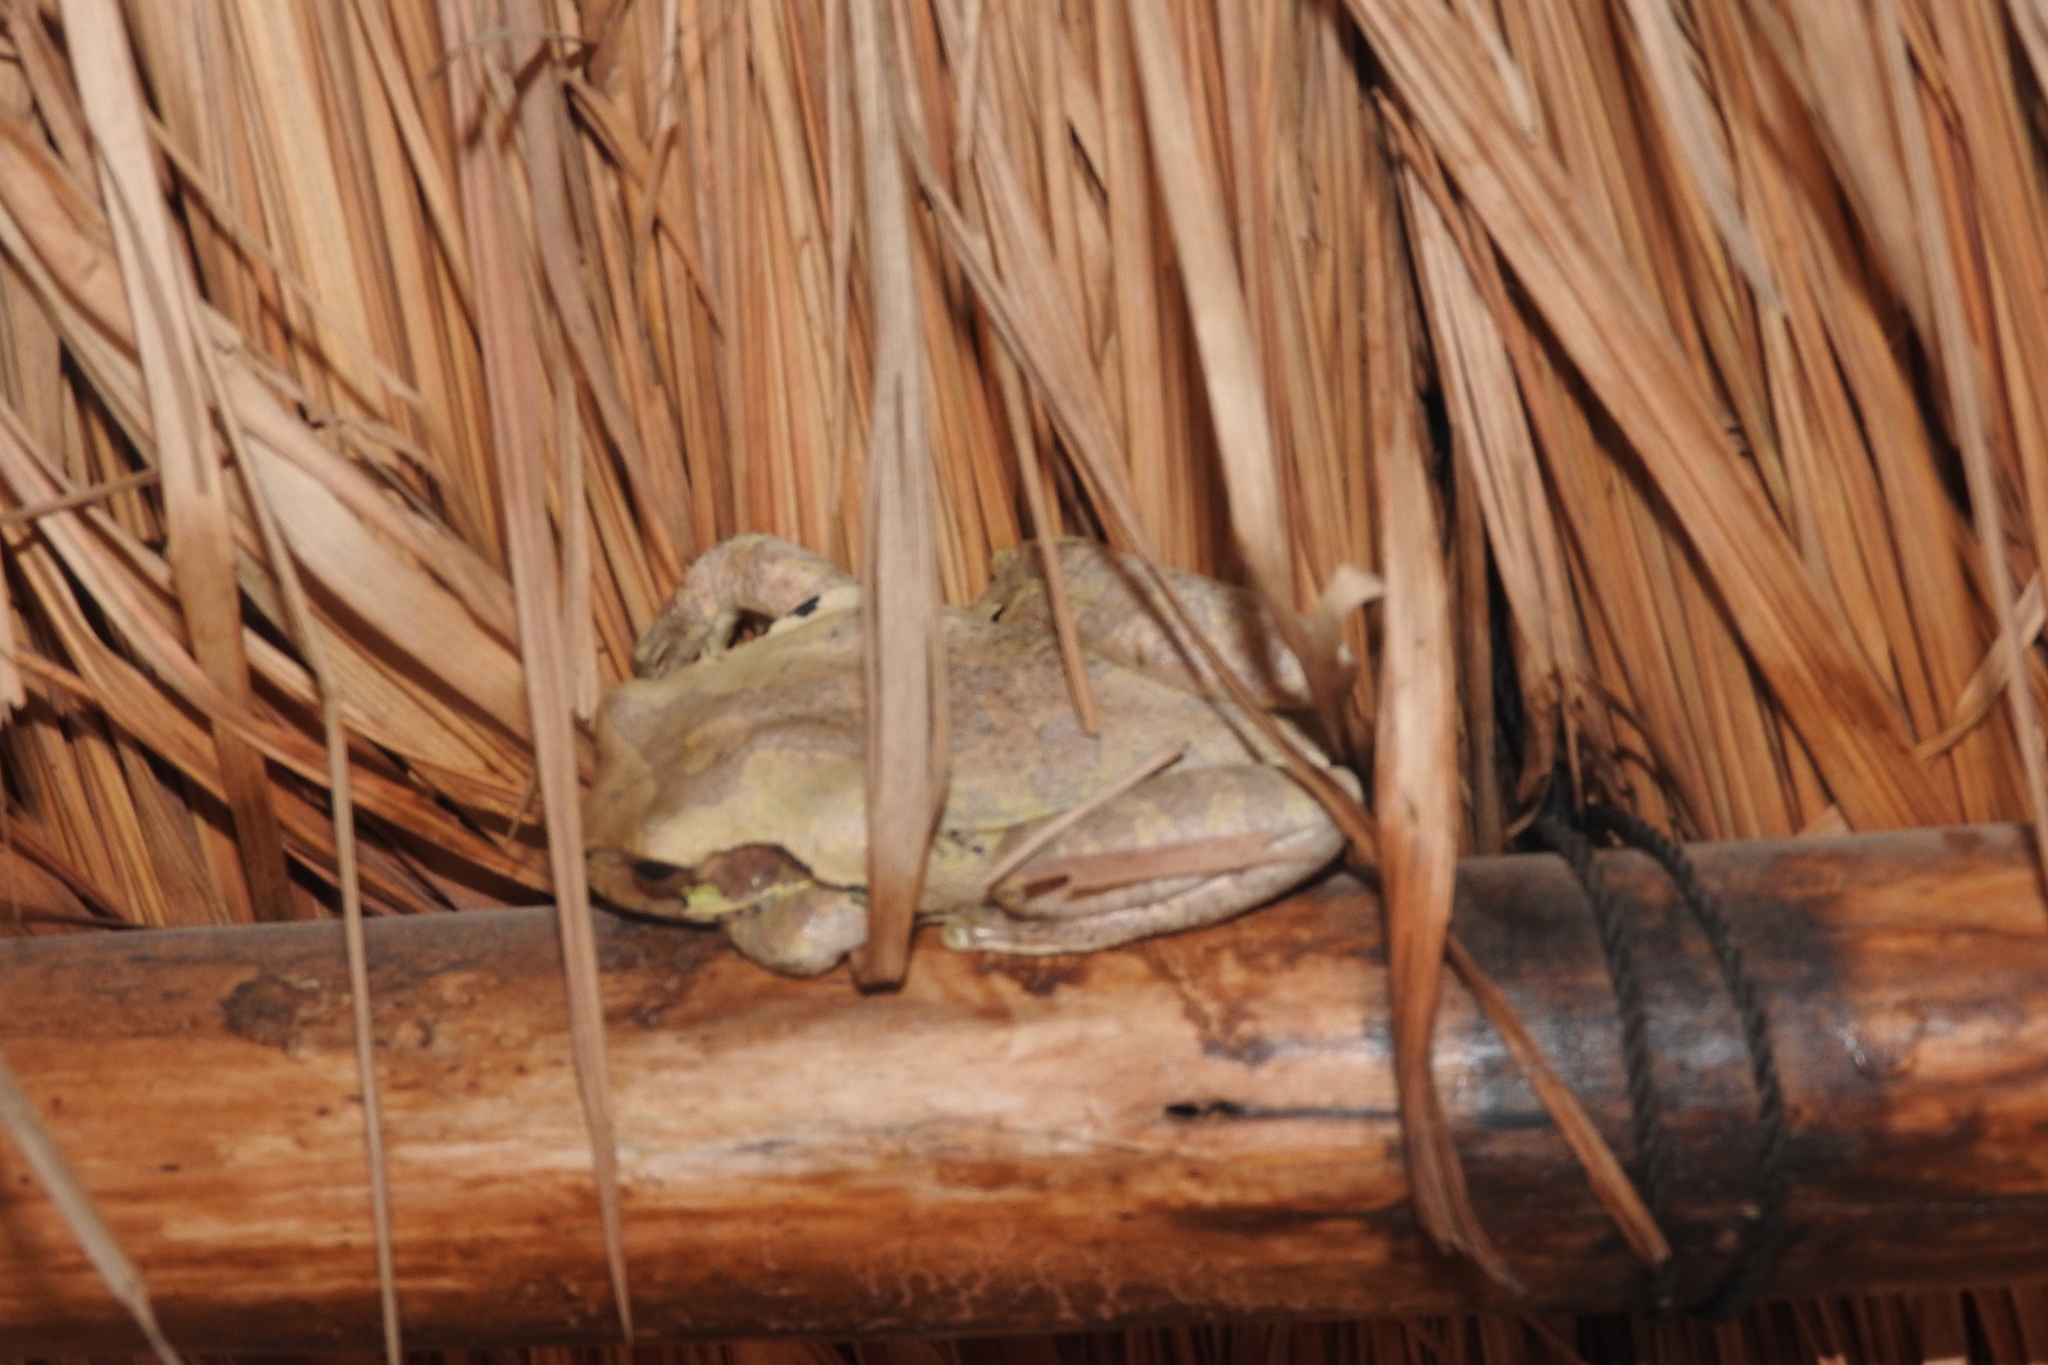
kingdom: Animalia
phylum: Chordata
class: Amphibia
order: Anura
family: Hylidae
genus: Smilisca
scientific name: Smilisca baudinii
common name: Mexican smilisca
